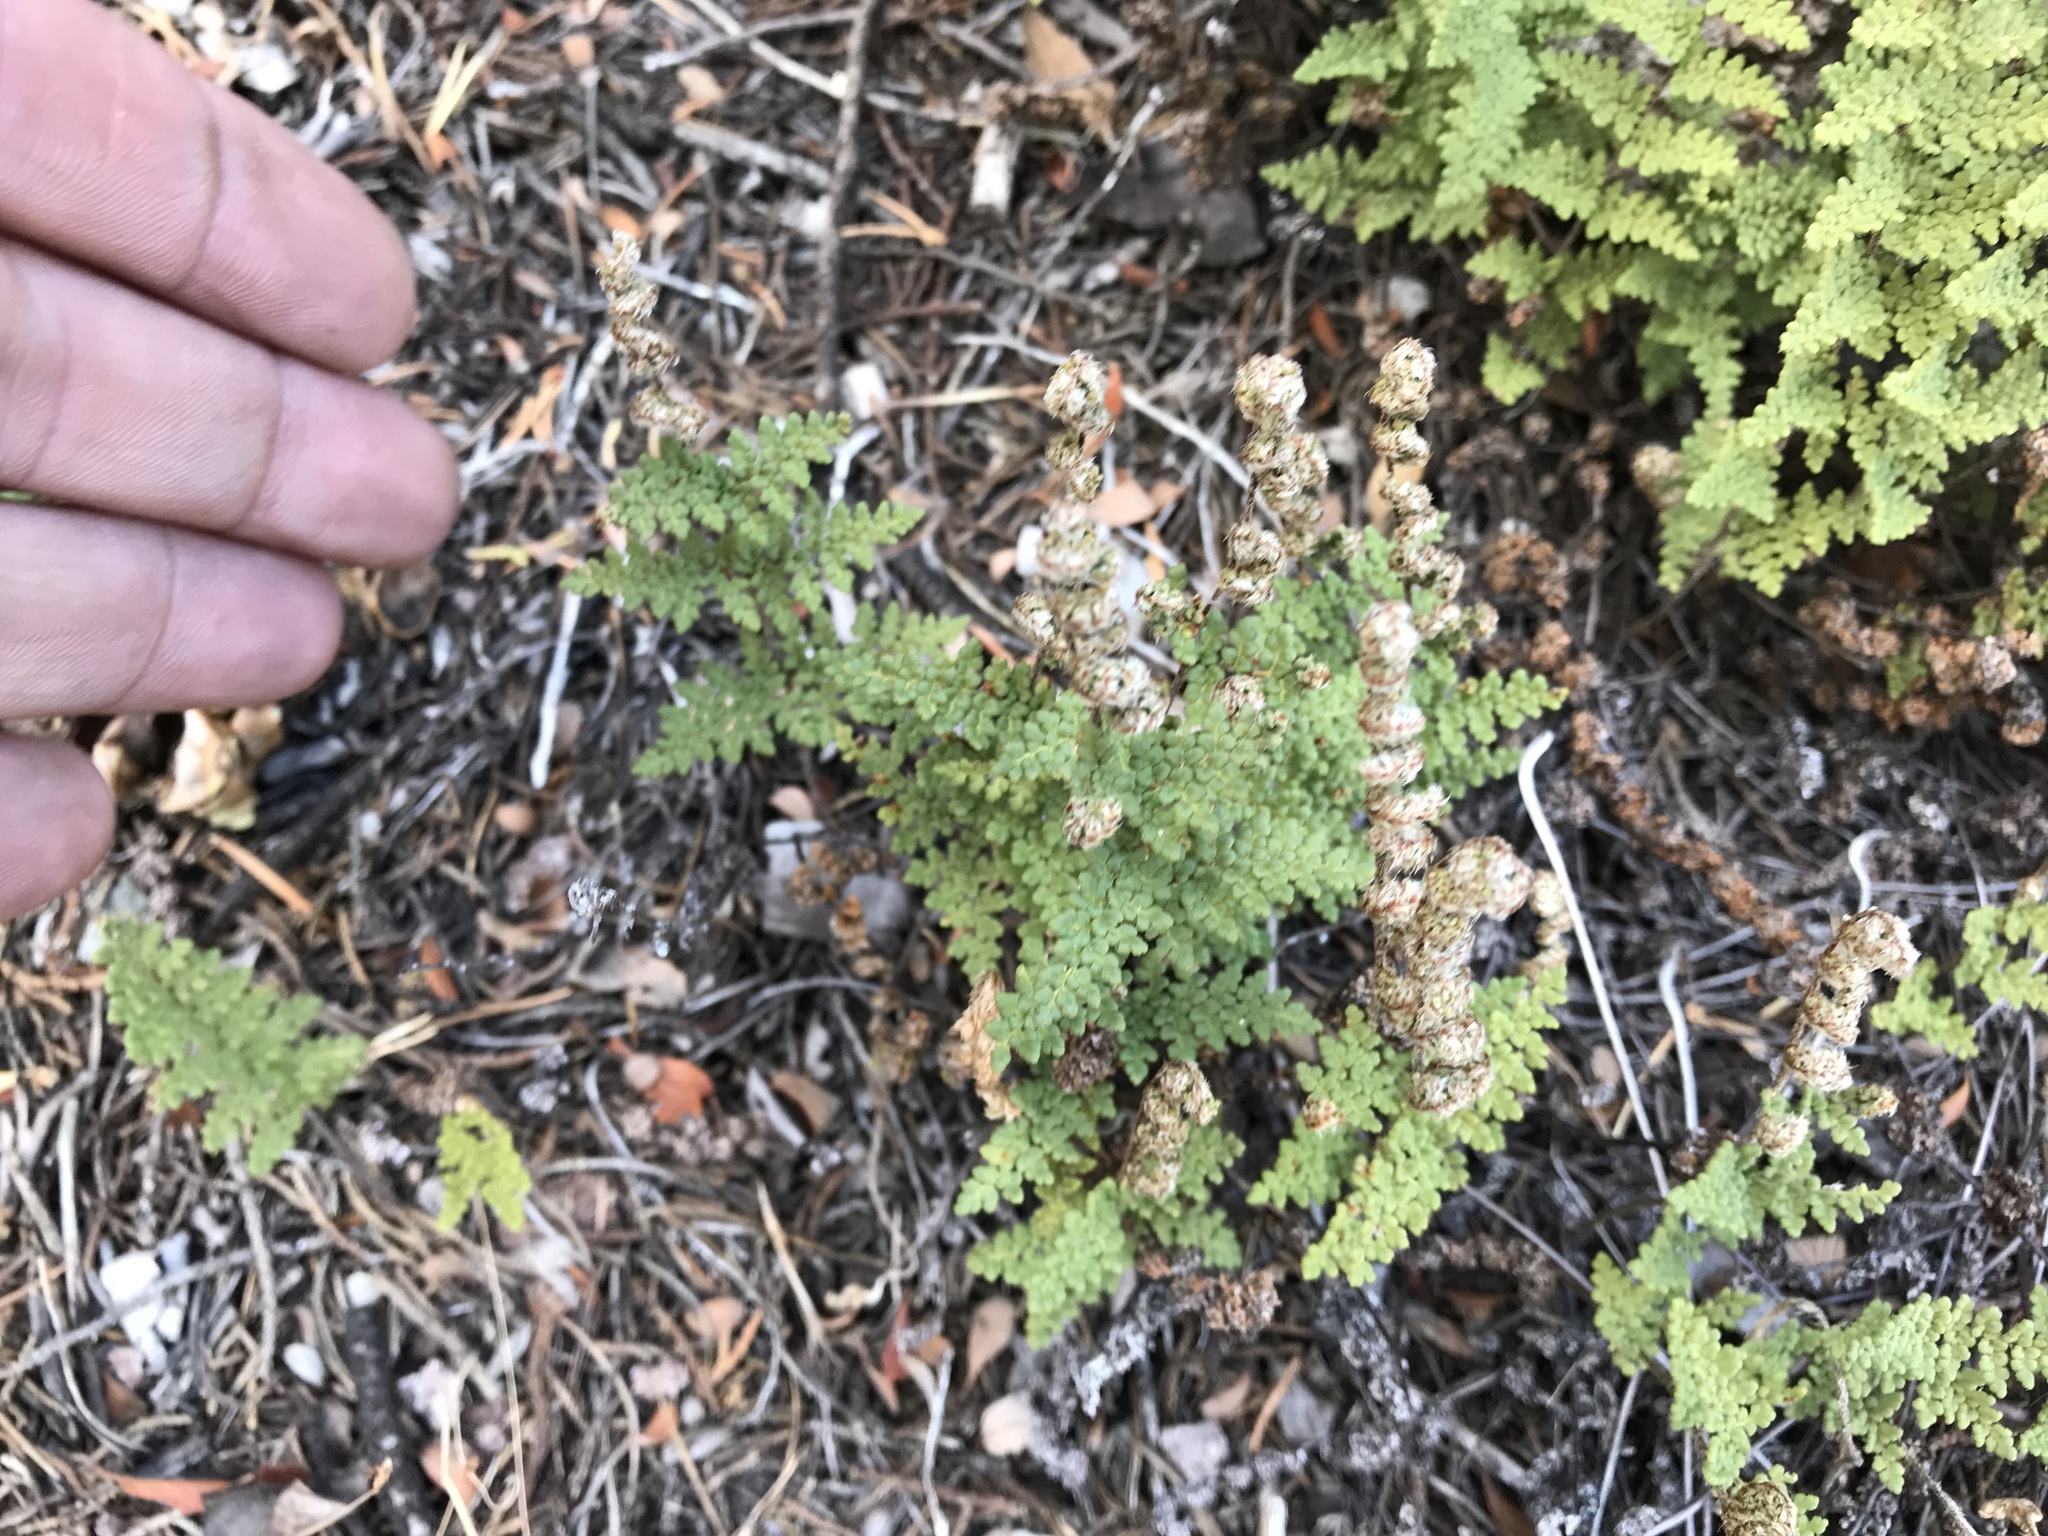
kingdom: Plantae
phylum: Tracheophyta
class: Polypodiopsida
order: Polypodiales
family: Pteridaceae
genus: Myriopteris
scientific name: Myriopteris fendleri
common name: Fendler's lip fern
